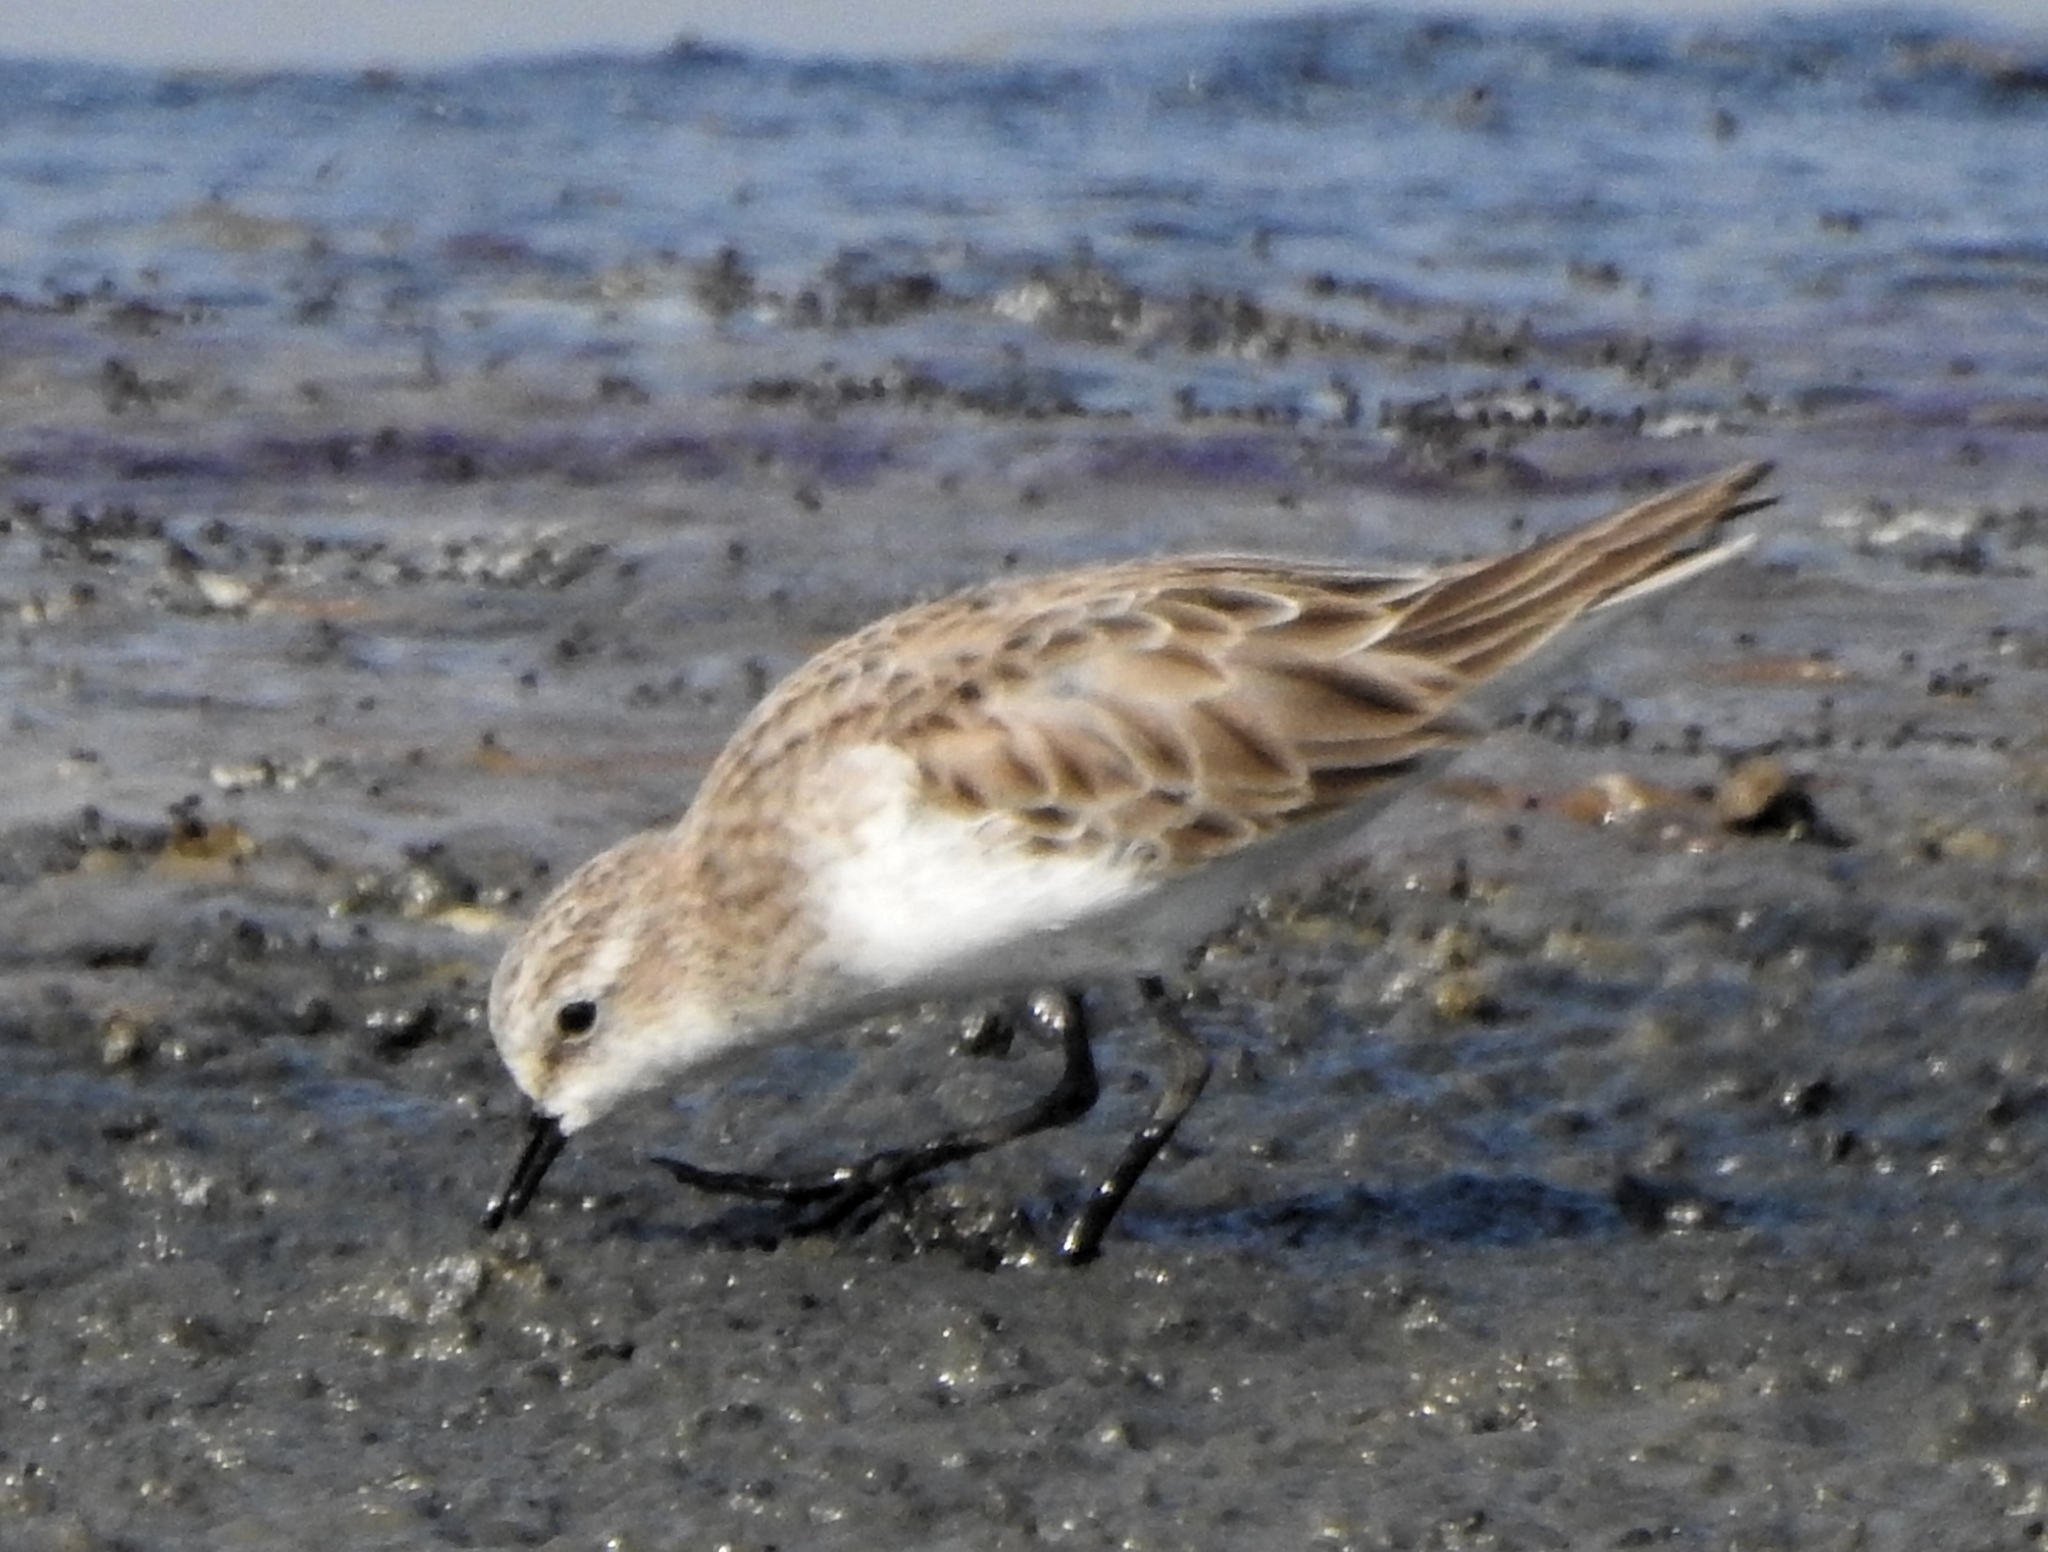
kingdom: Animalia
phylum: Chordata
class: Aves
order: Charadriiformes
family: Scolopacidae
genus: Calidris
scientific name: Calidris minuta
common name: Little stint
